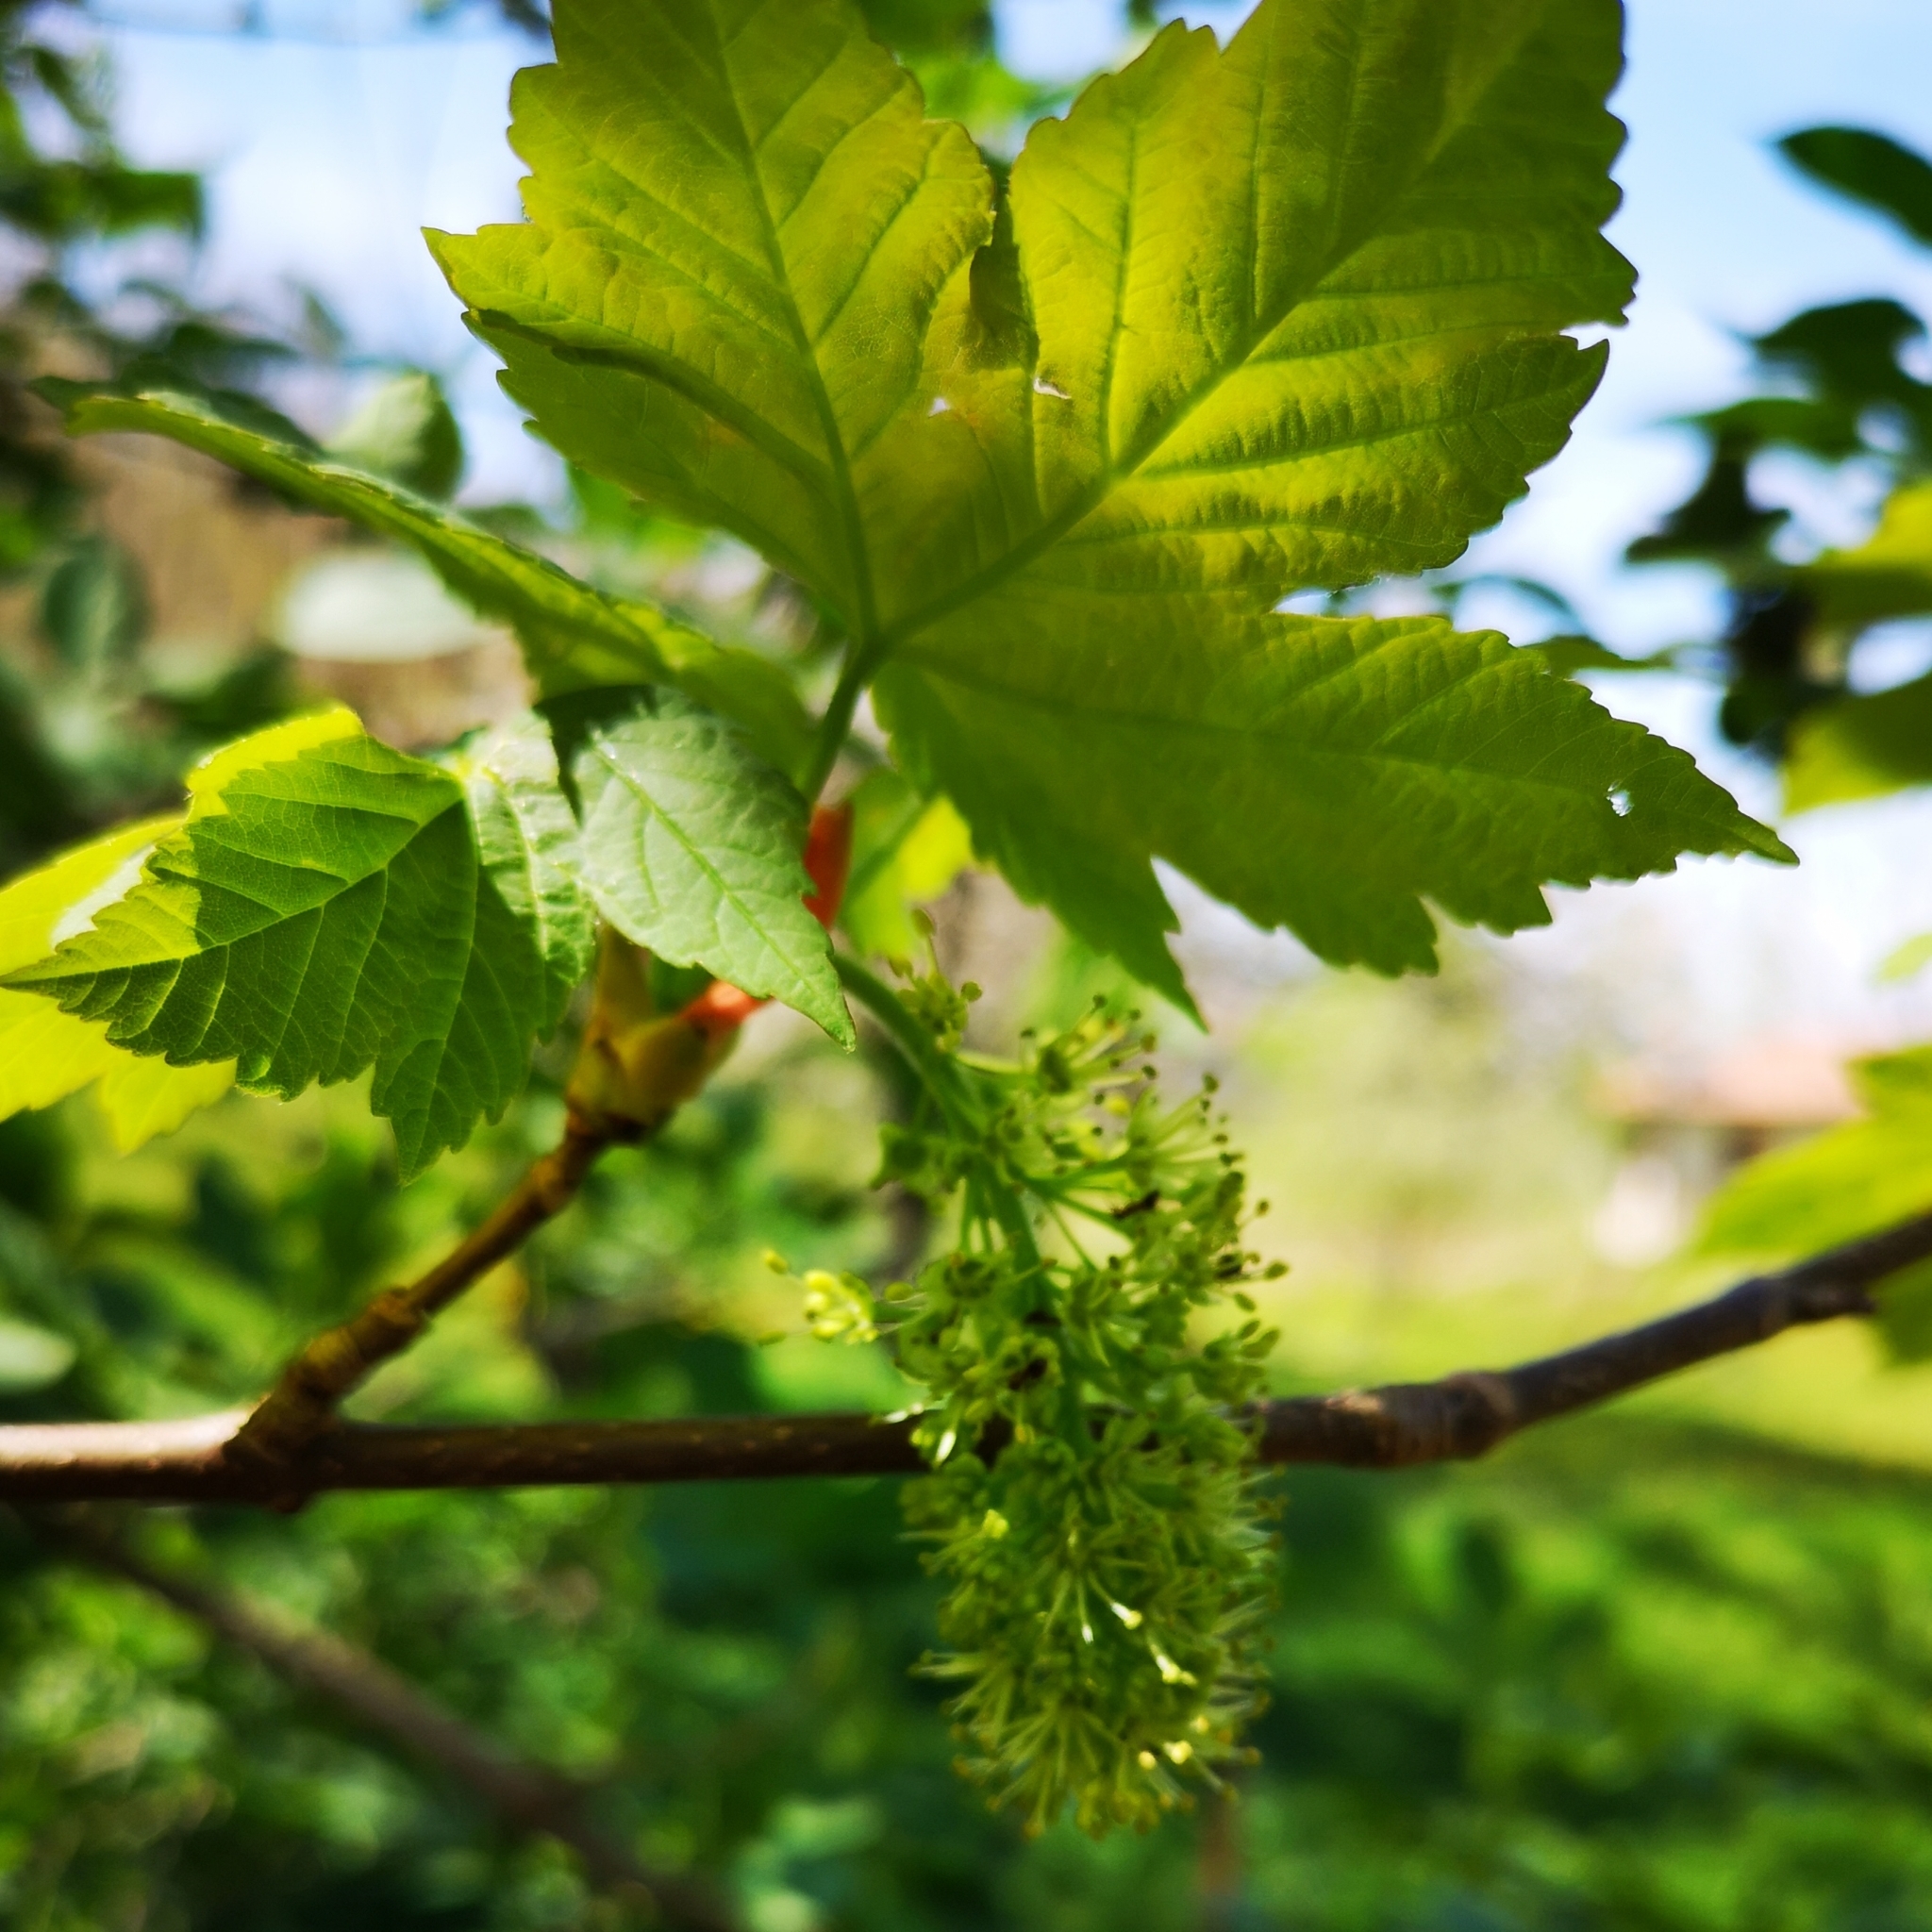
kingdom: Plantae
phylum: Tracheophyta
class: Magnoliopsida
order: Sapindales
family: Sapindaceae
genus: Acer
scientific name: Acer pseudoplatanus
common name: Sycamore
